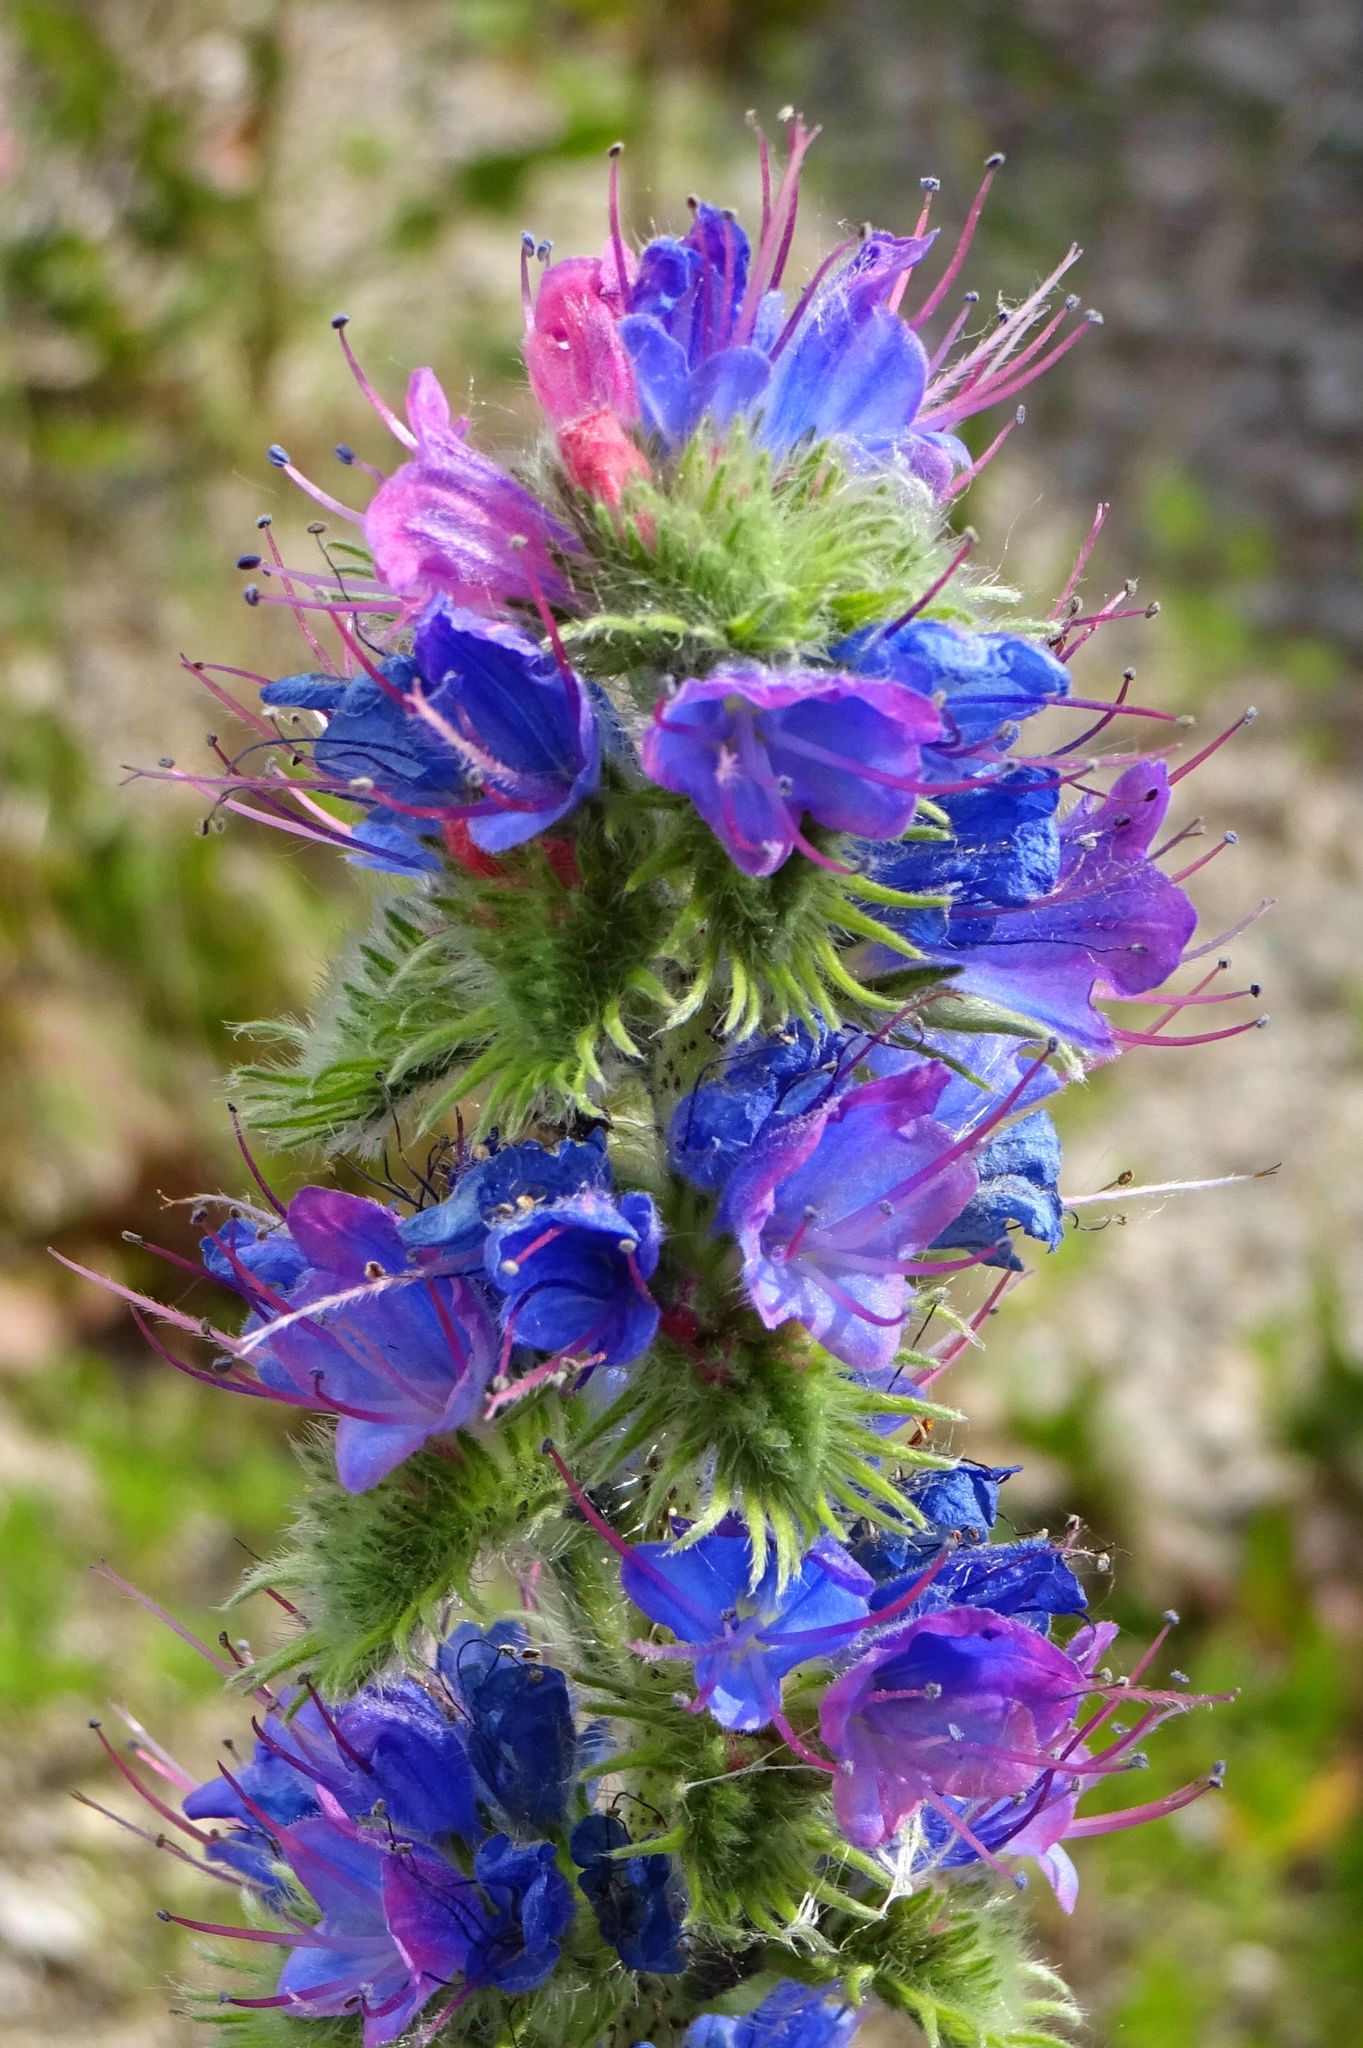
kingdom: Plantae
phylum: Tracheophyta
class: Magnoliopsida
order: Boraginales
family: Boraginaceae
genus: Echium
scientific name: Echium vulgare
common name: Common viper's bugloss
